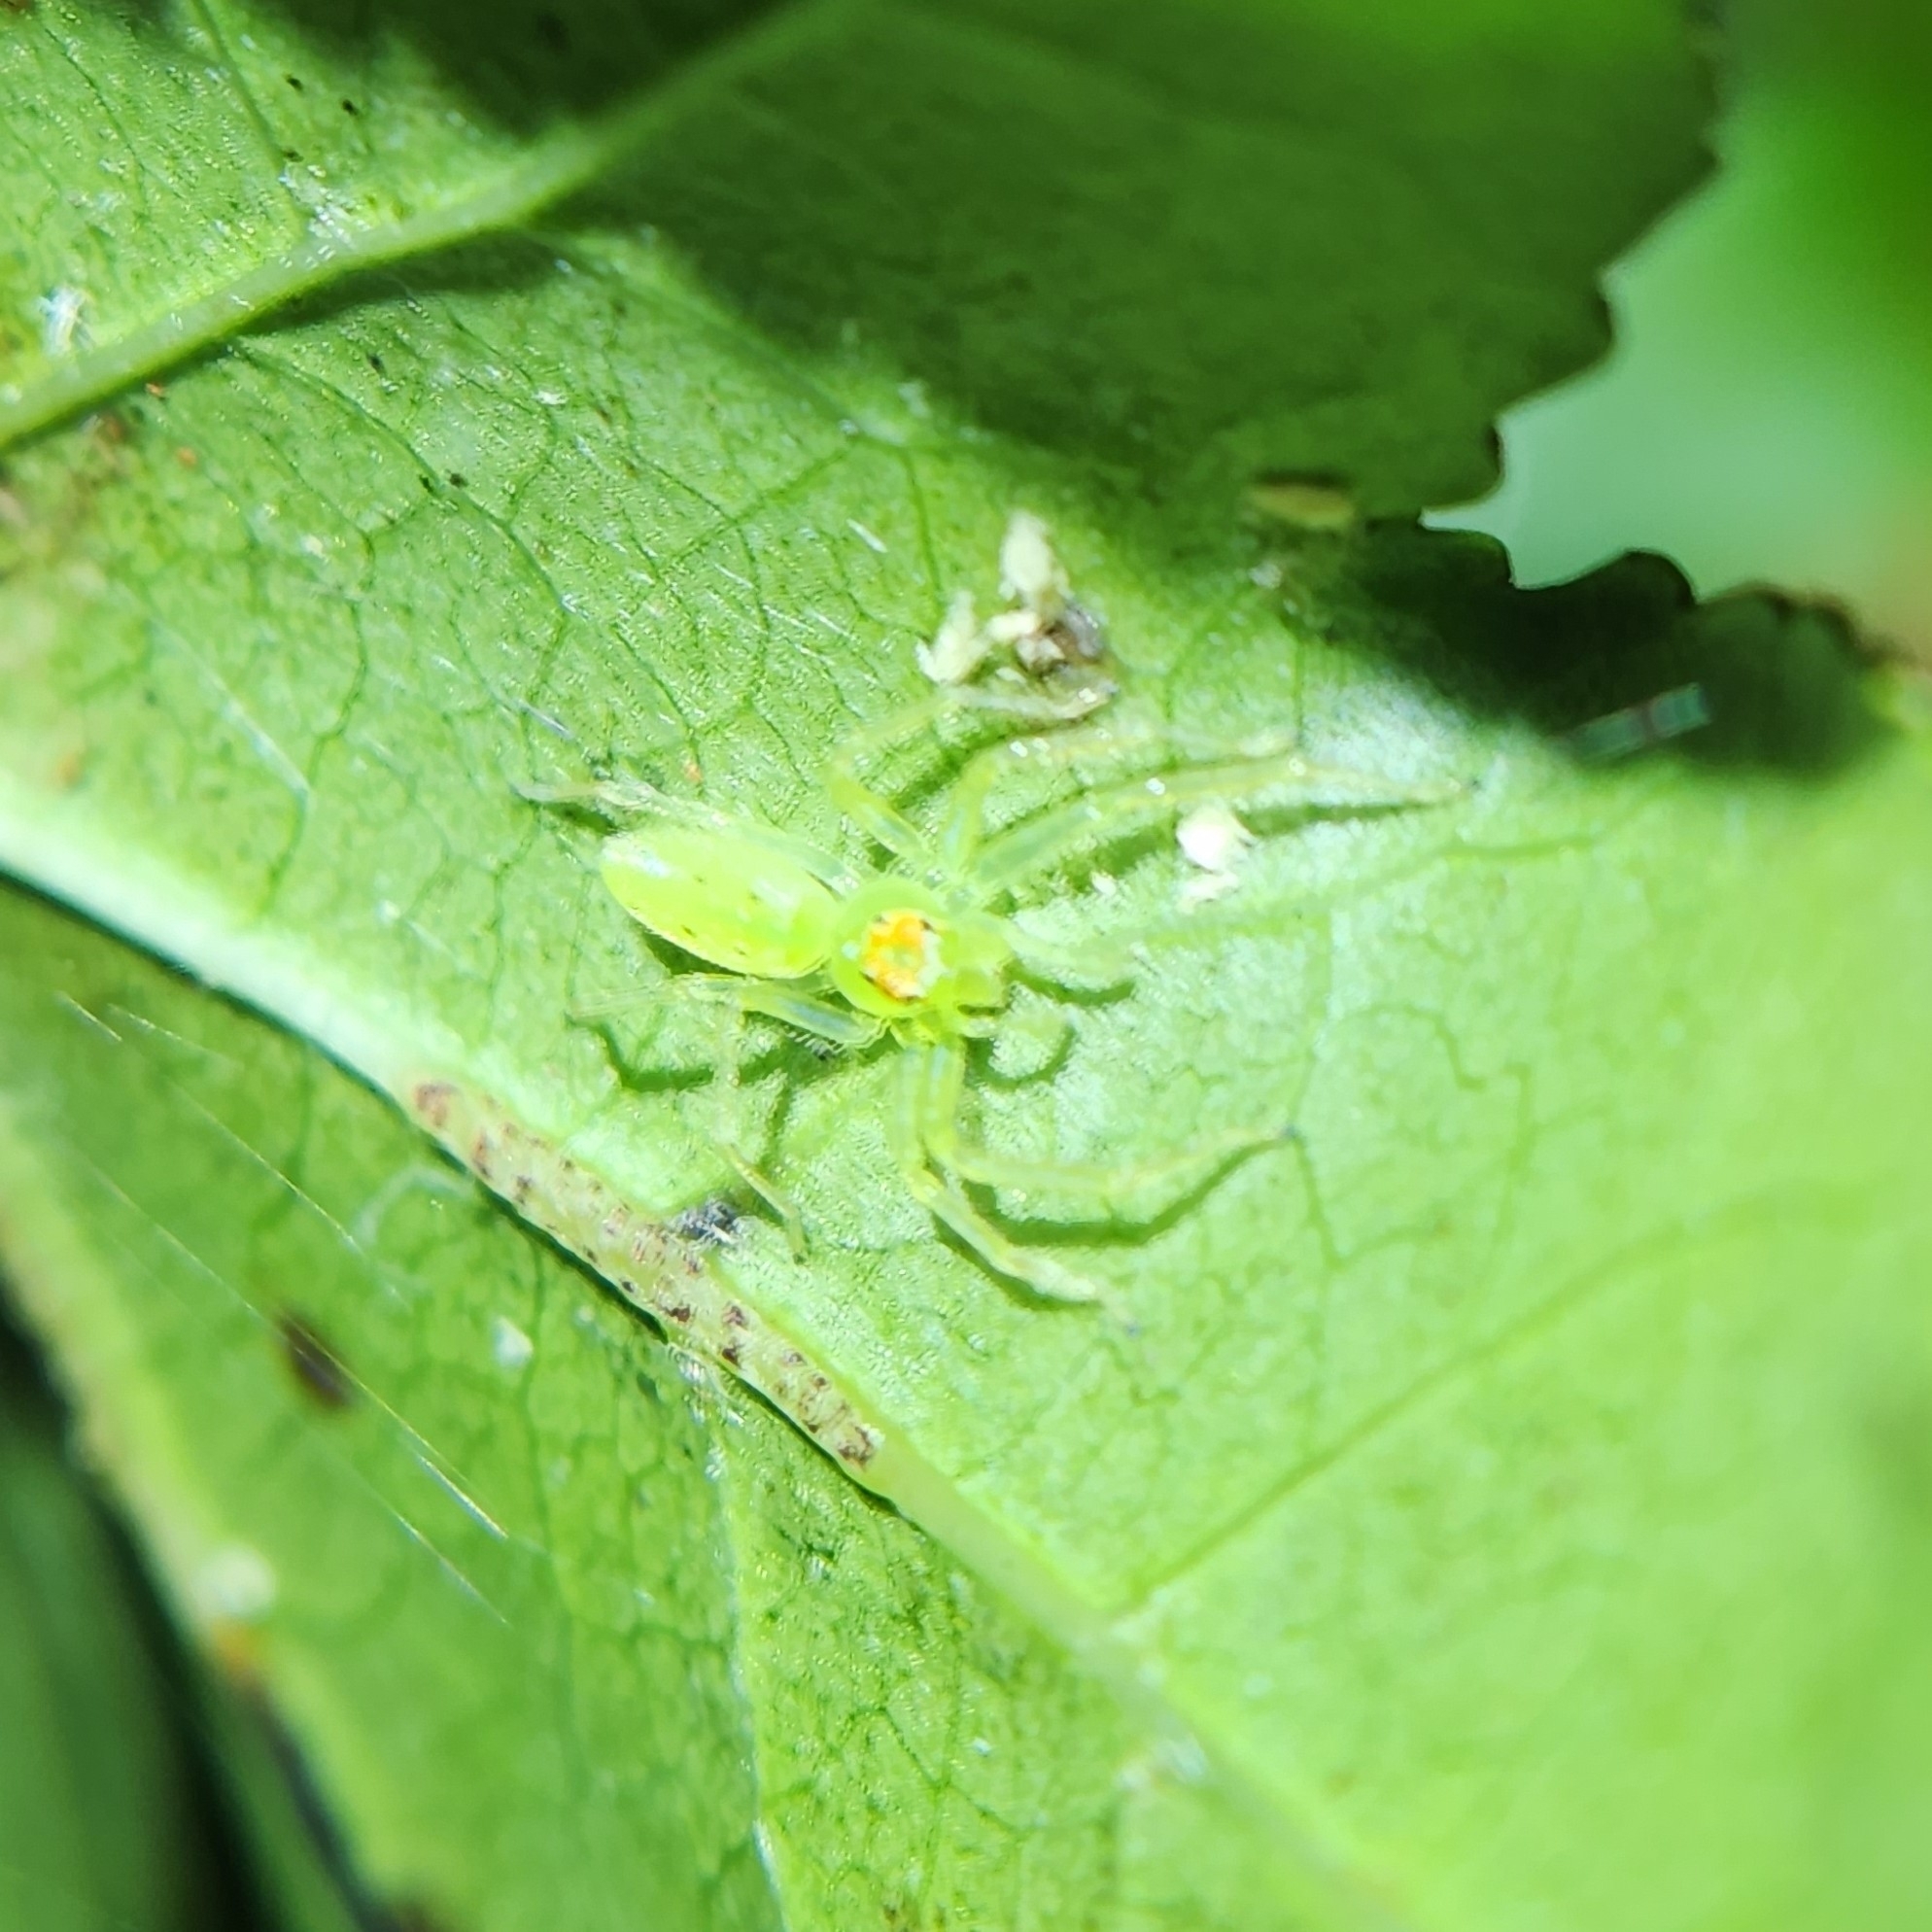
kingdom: Animalia
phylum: Arthropoda
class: Arachnida
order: Araneae
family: Salticidae
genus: Lyssomanes
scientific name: Lyssomanes viridis
